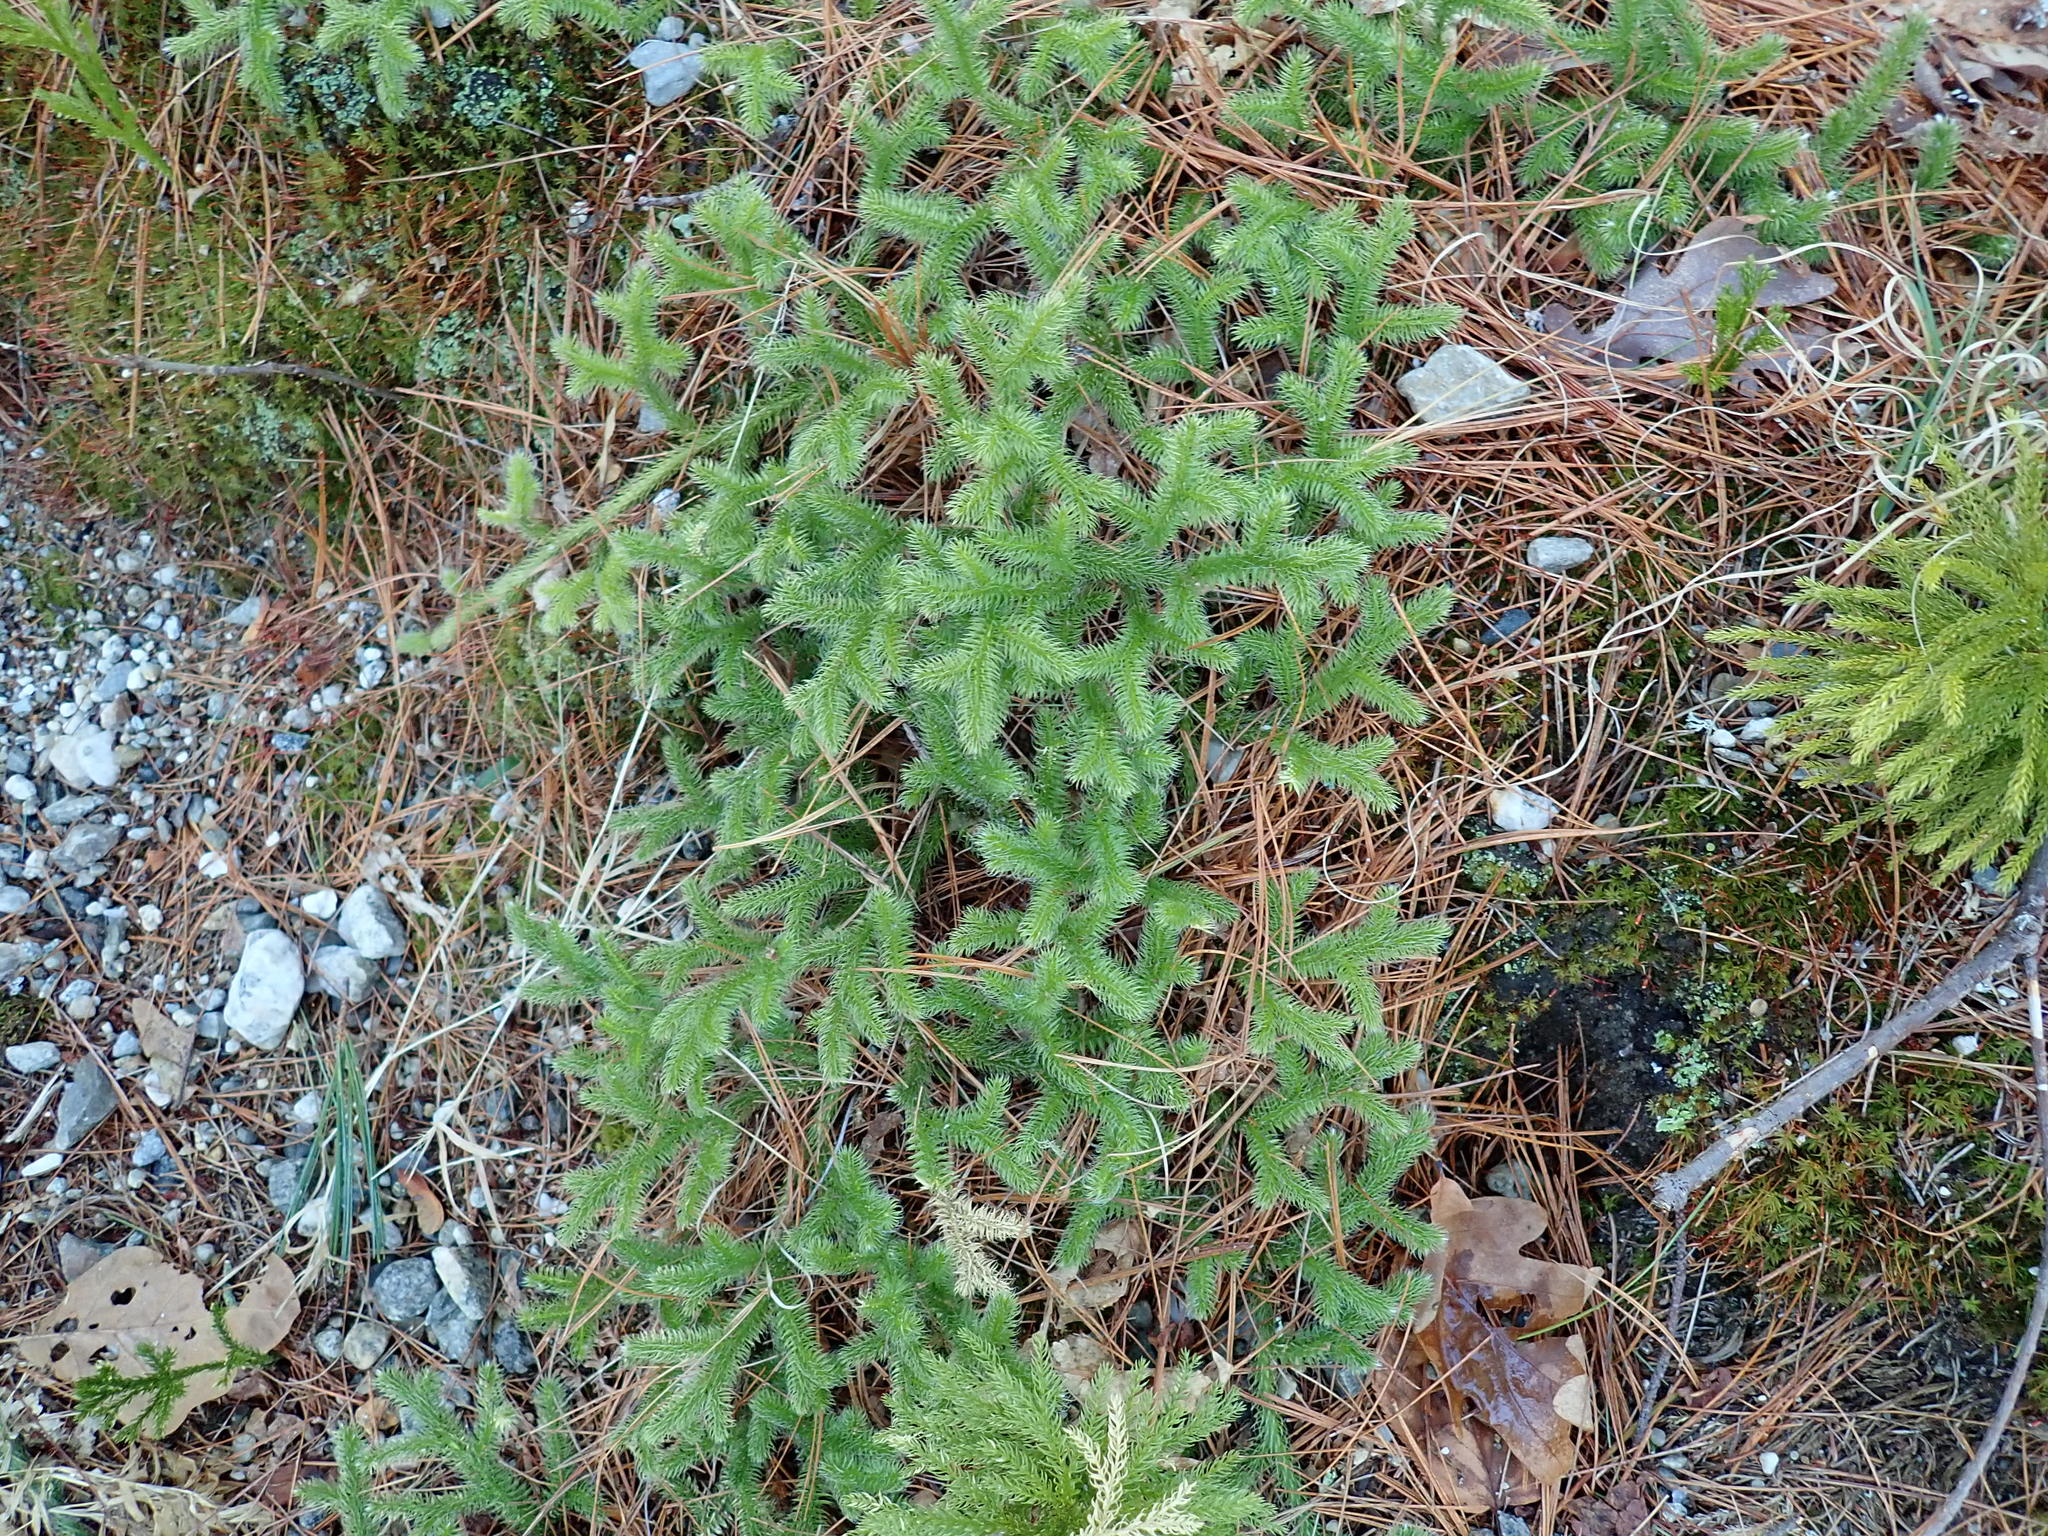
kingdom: Plantae
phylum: Tracheophyta
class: Lycopodiopsida
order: Lycopodiales
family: Lycopodiaceae
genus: Lycopodium
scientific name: Lycopodium clavatum
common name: Stag's-horn clubmoss
